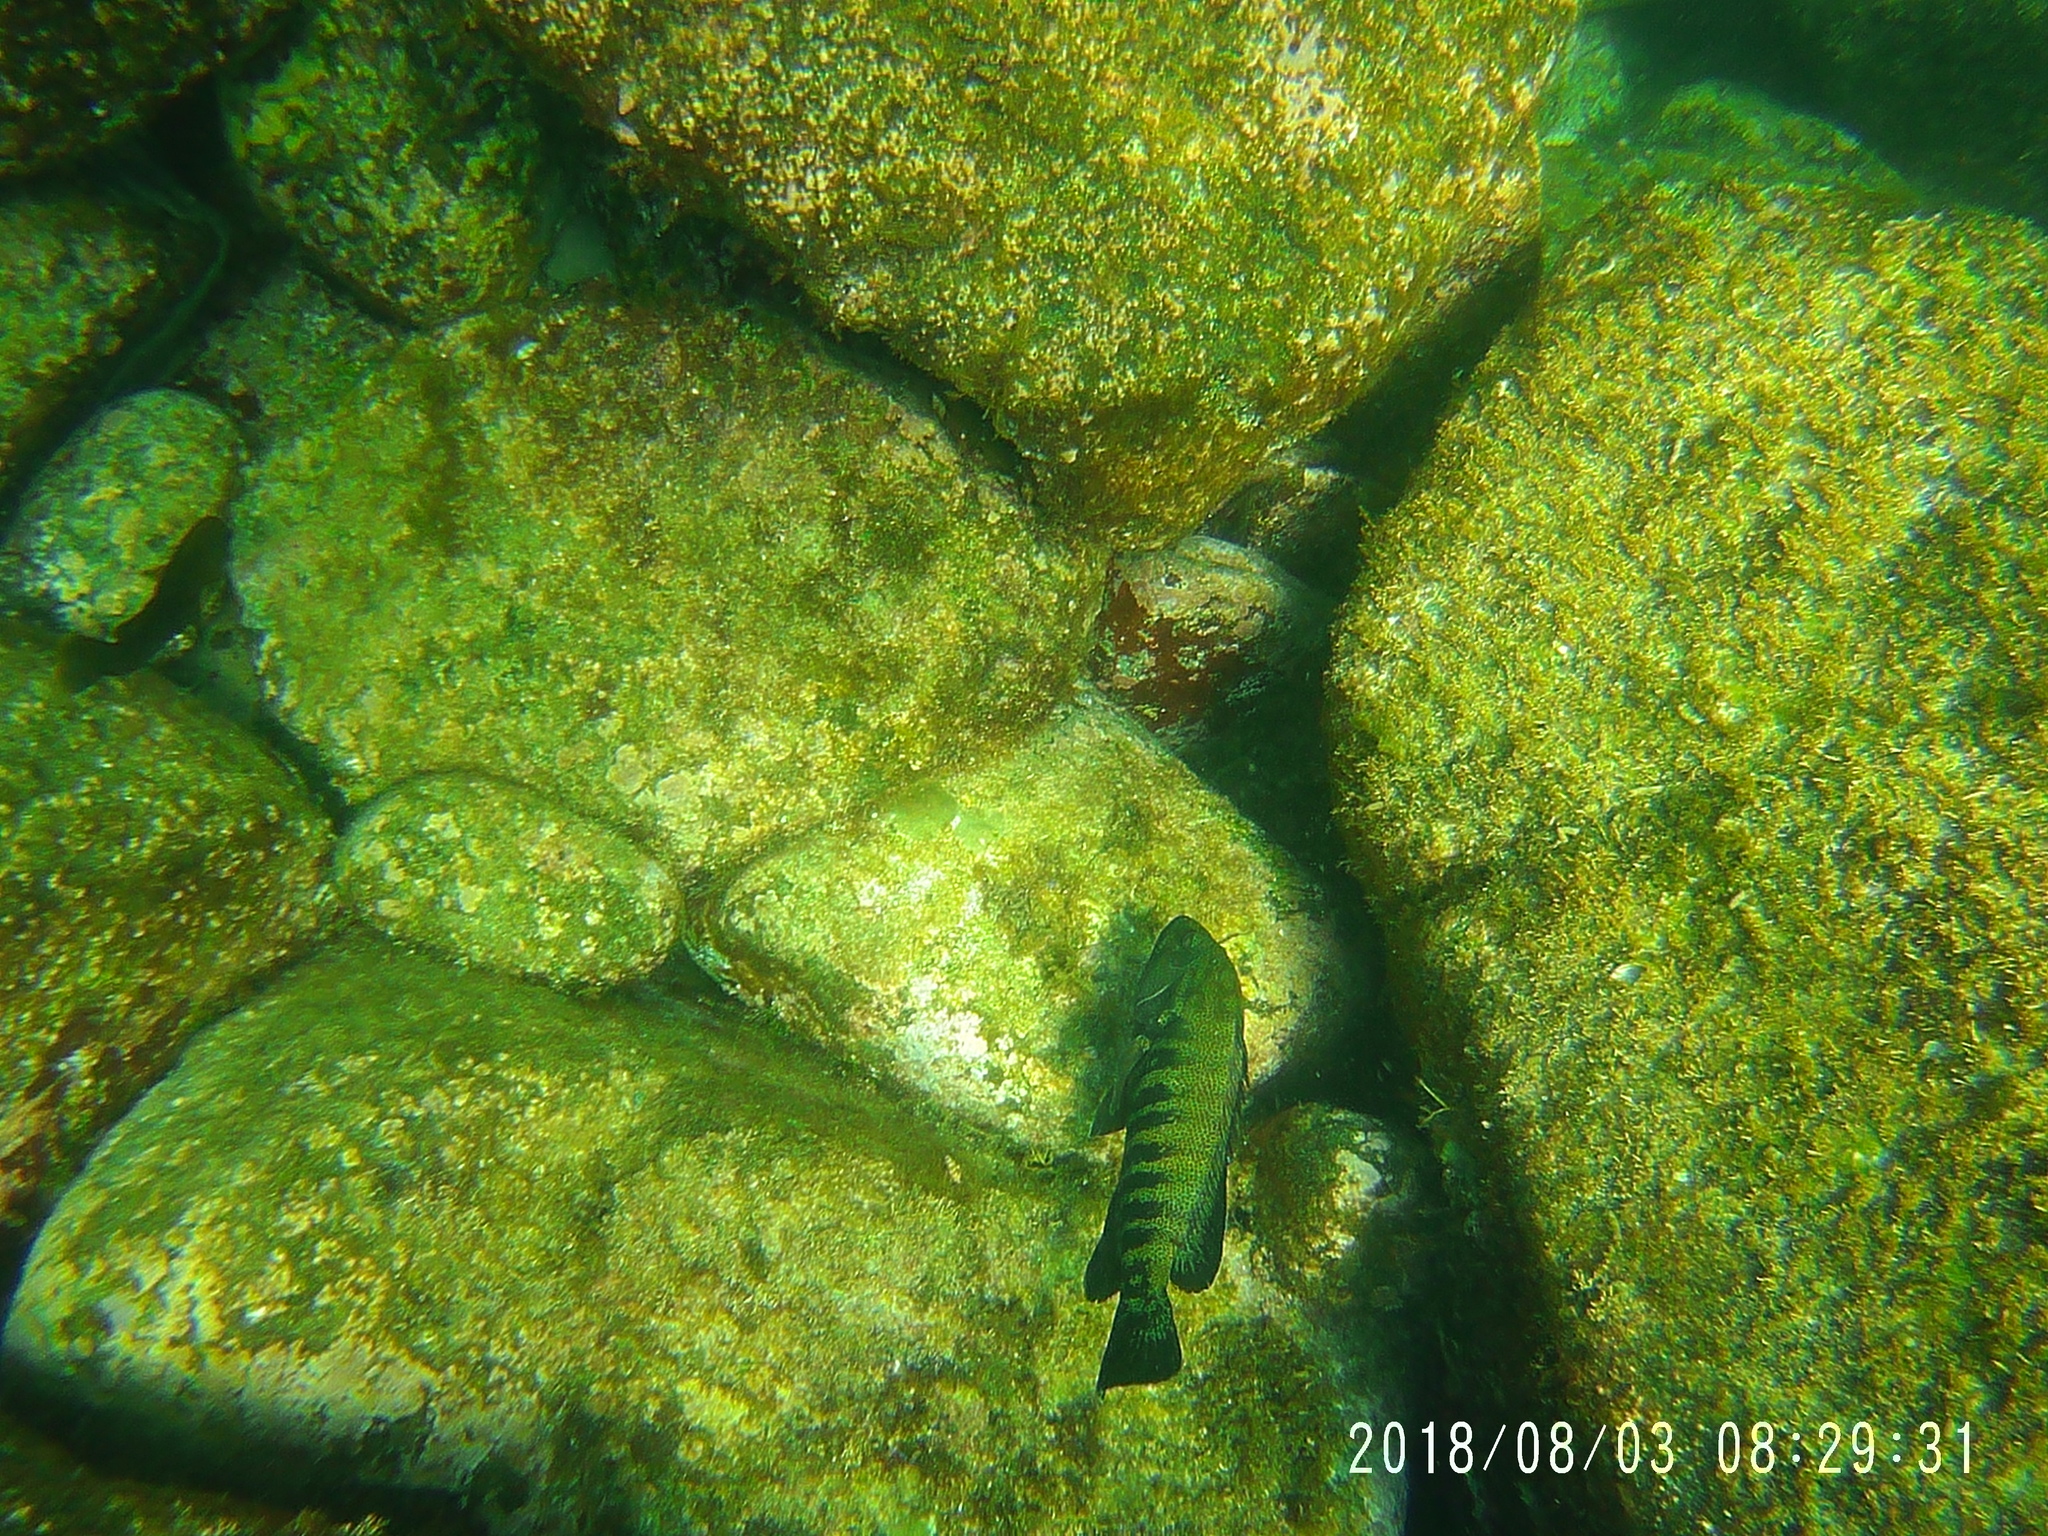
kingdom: Animalia
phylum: Chordata
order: Perciformes
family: Serranidae
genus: Cephalopholis
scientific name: Cephalopholis panamensis
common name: Pacific graysby
